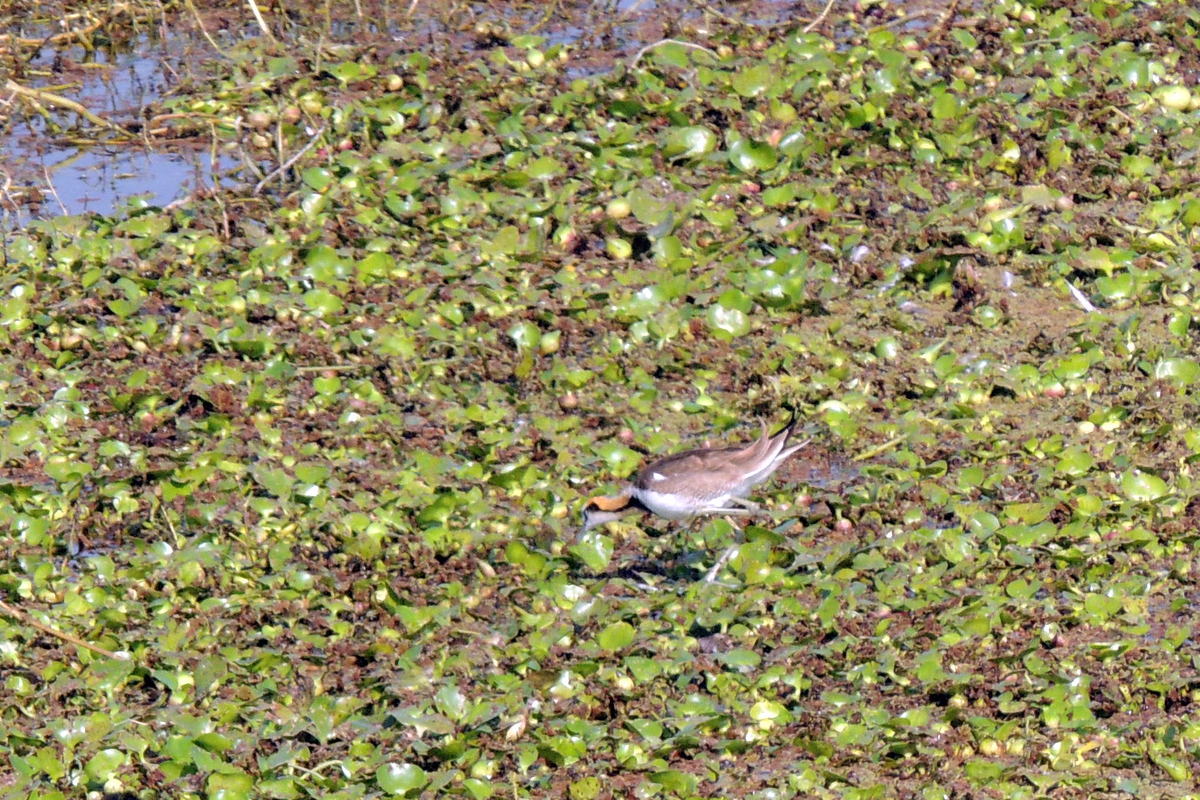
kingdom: Animalia
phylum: Chordata
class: Aves
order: Charadriiformes
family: Jacanidae
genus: Hydrophasianus
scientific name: Hydrophasianus chirurgus
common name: Pheasant-tailed jacana
